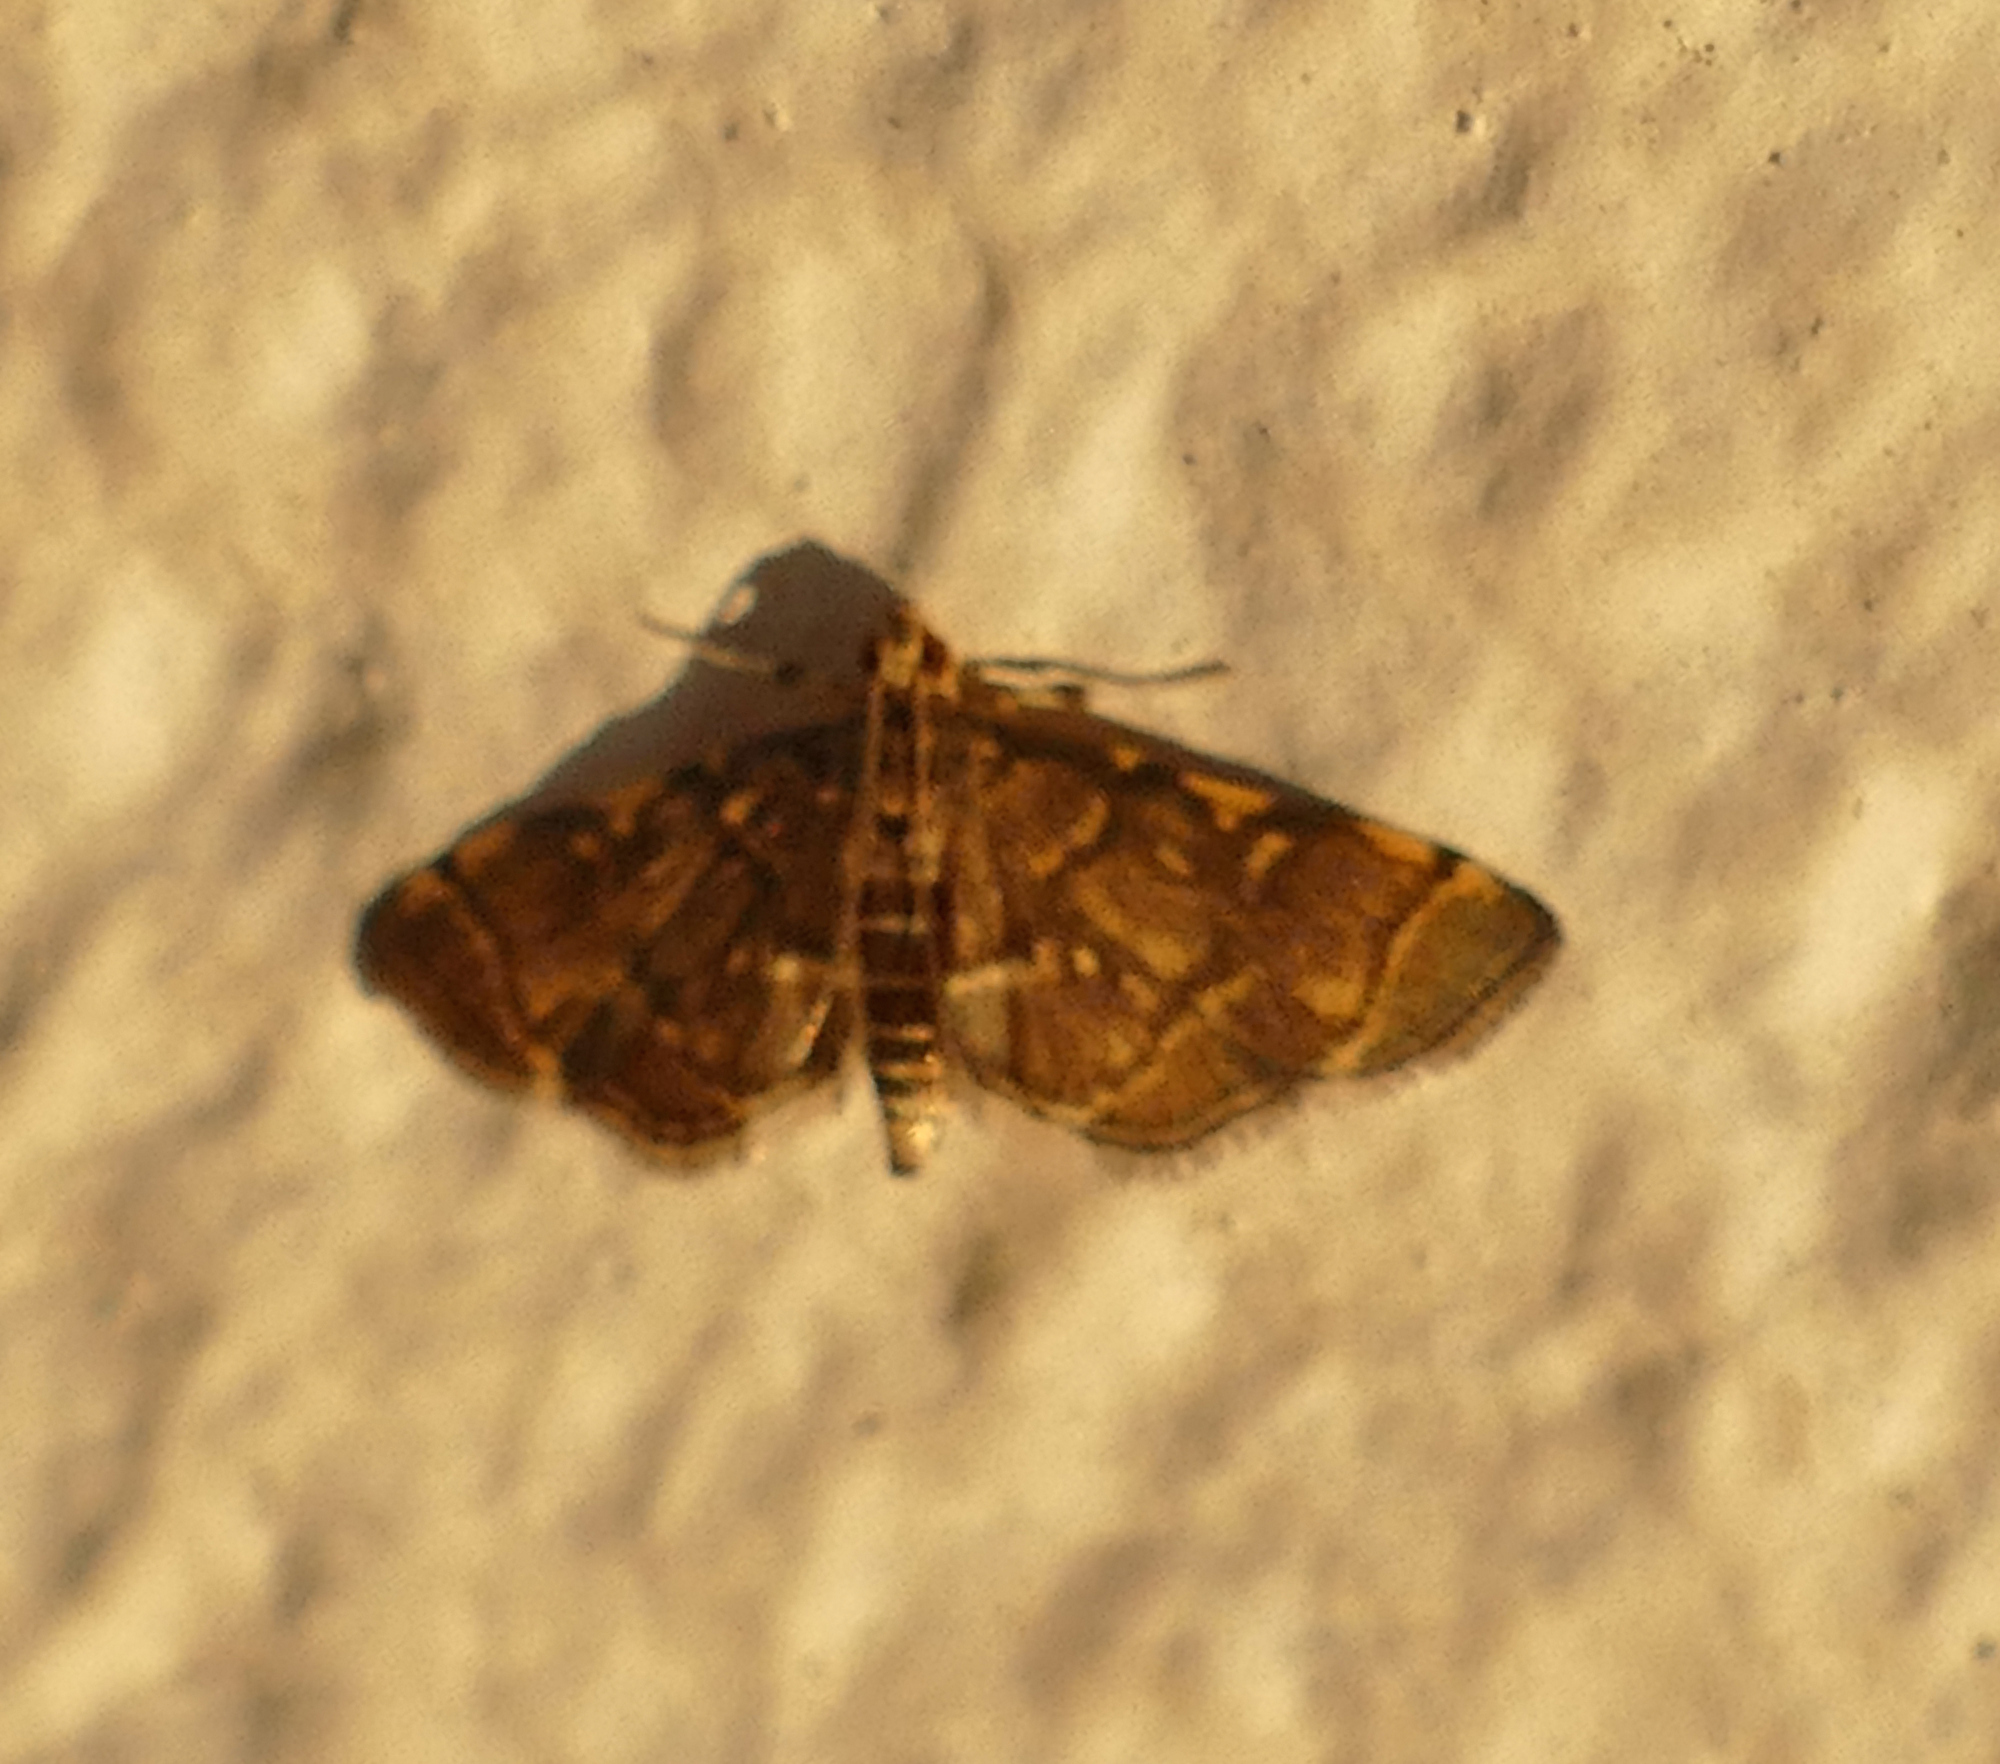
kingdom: Animalia
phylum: Arthropoda
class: Insecta
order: Lepidoptera
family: Crambidae
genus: Anageshna
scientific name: Anageshna primordialis
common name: Yellow-spotted webworm moth
